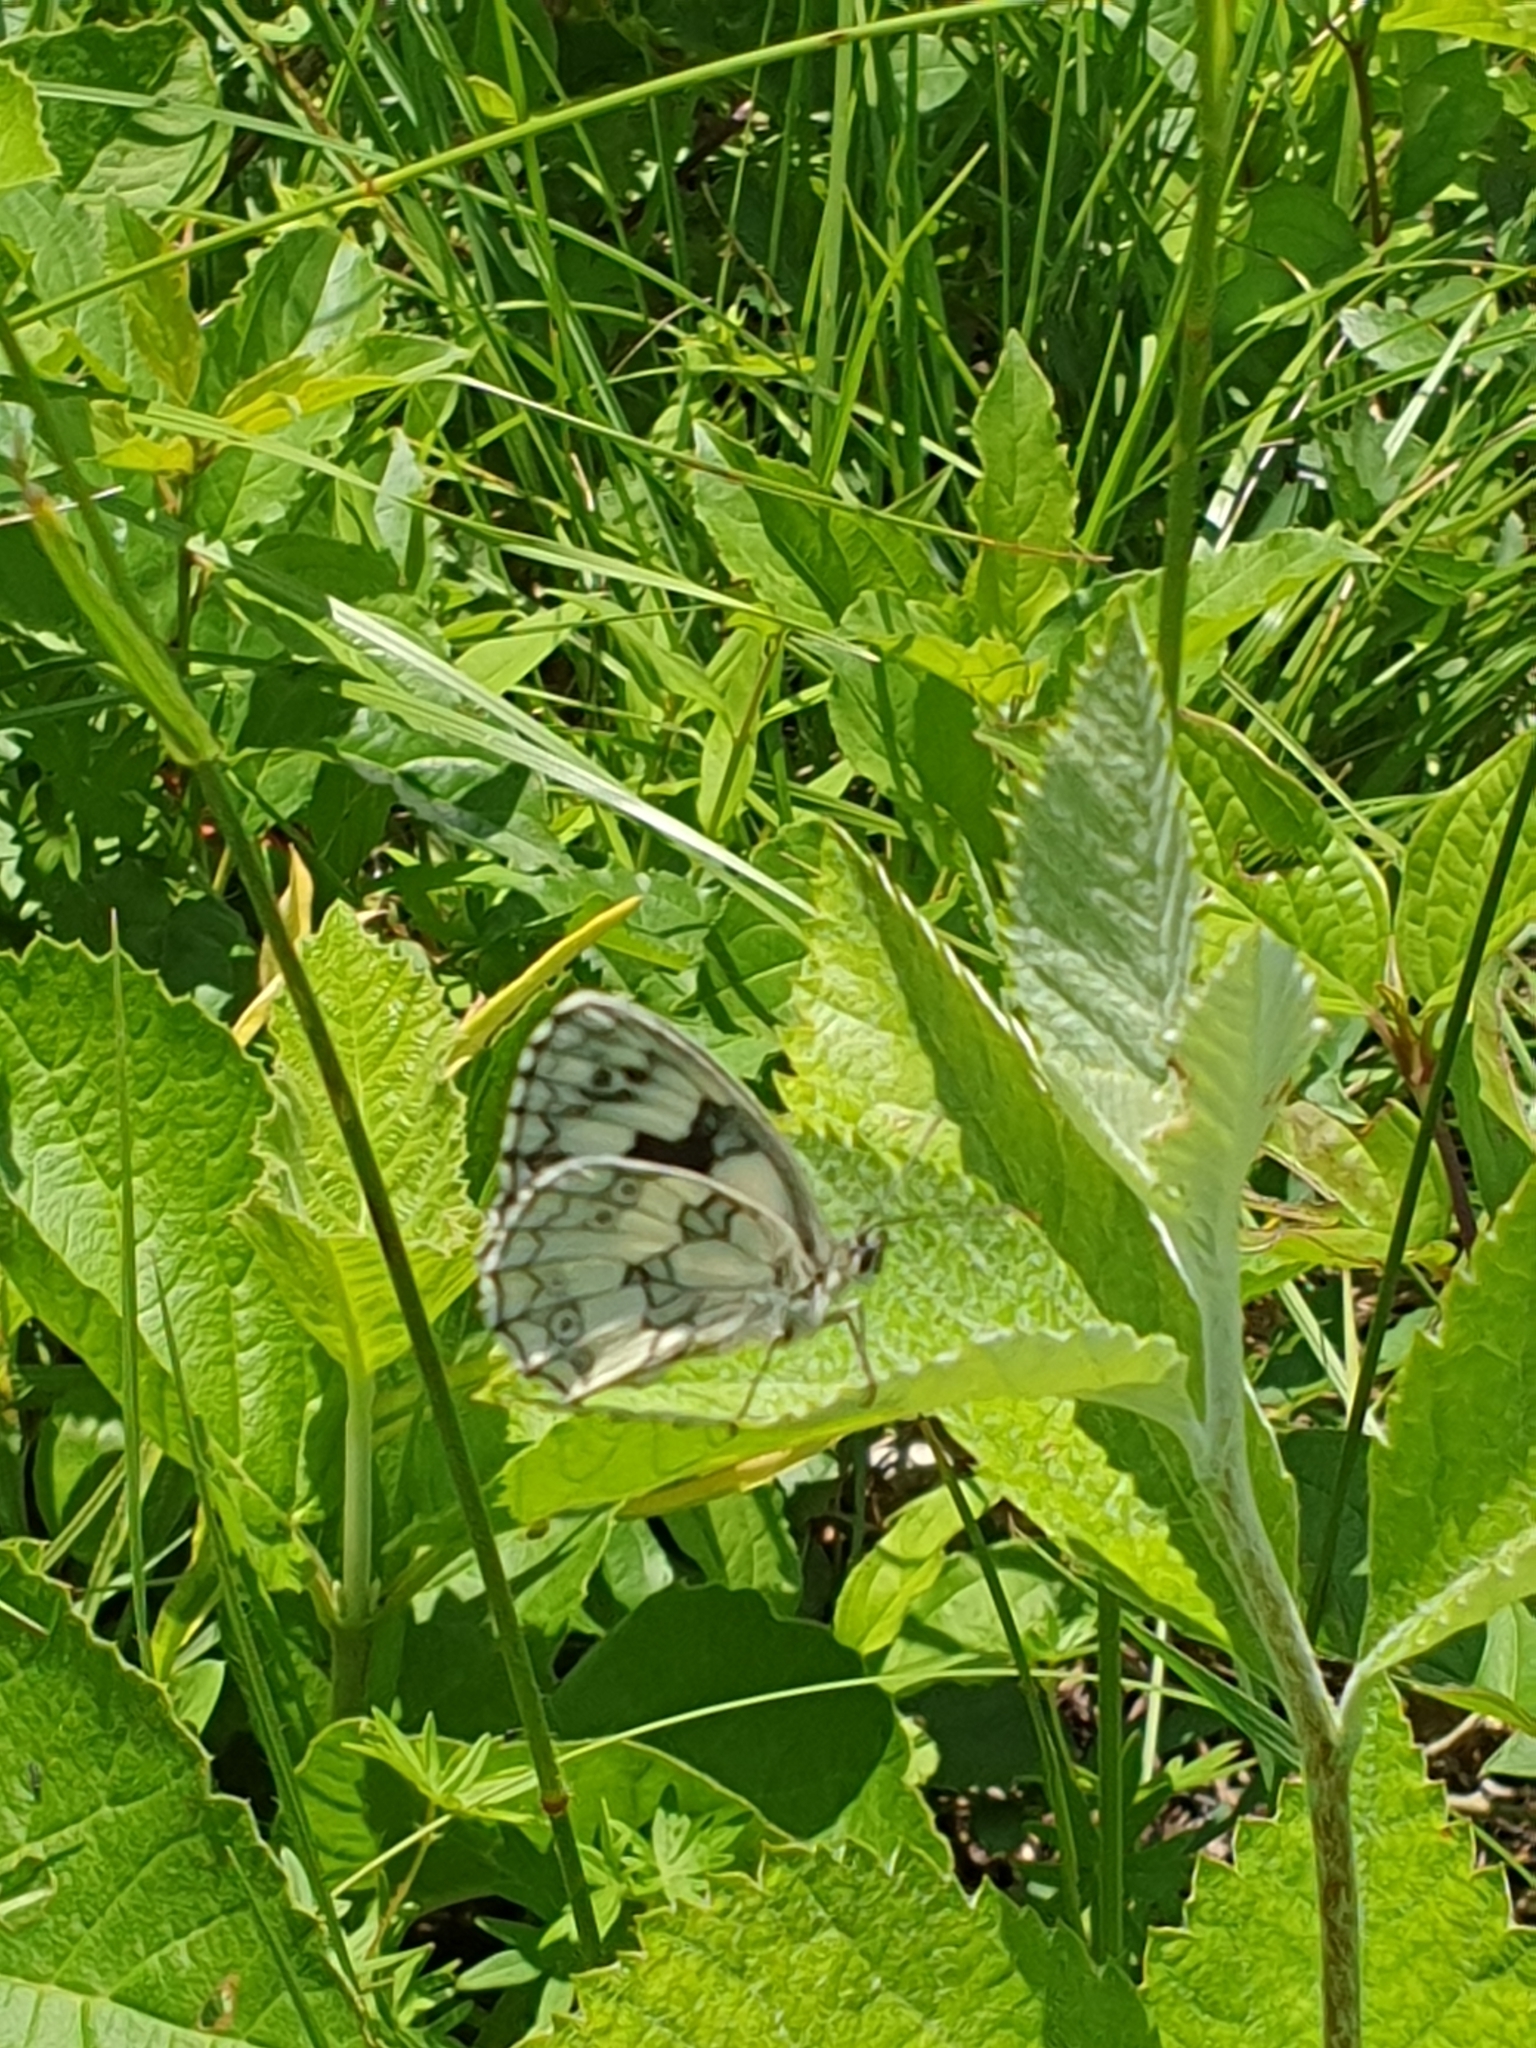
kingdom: Animalia
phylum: Arthropoda
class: Insecta
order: Lepidoptera
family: Nymphalidae
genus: Melanargia
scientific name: Melanargia galathea
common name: Marbled white
